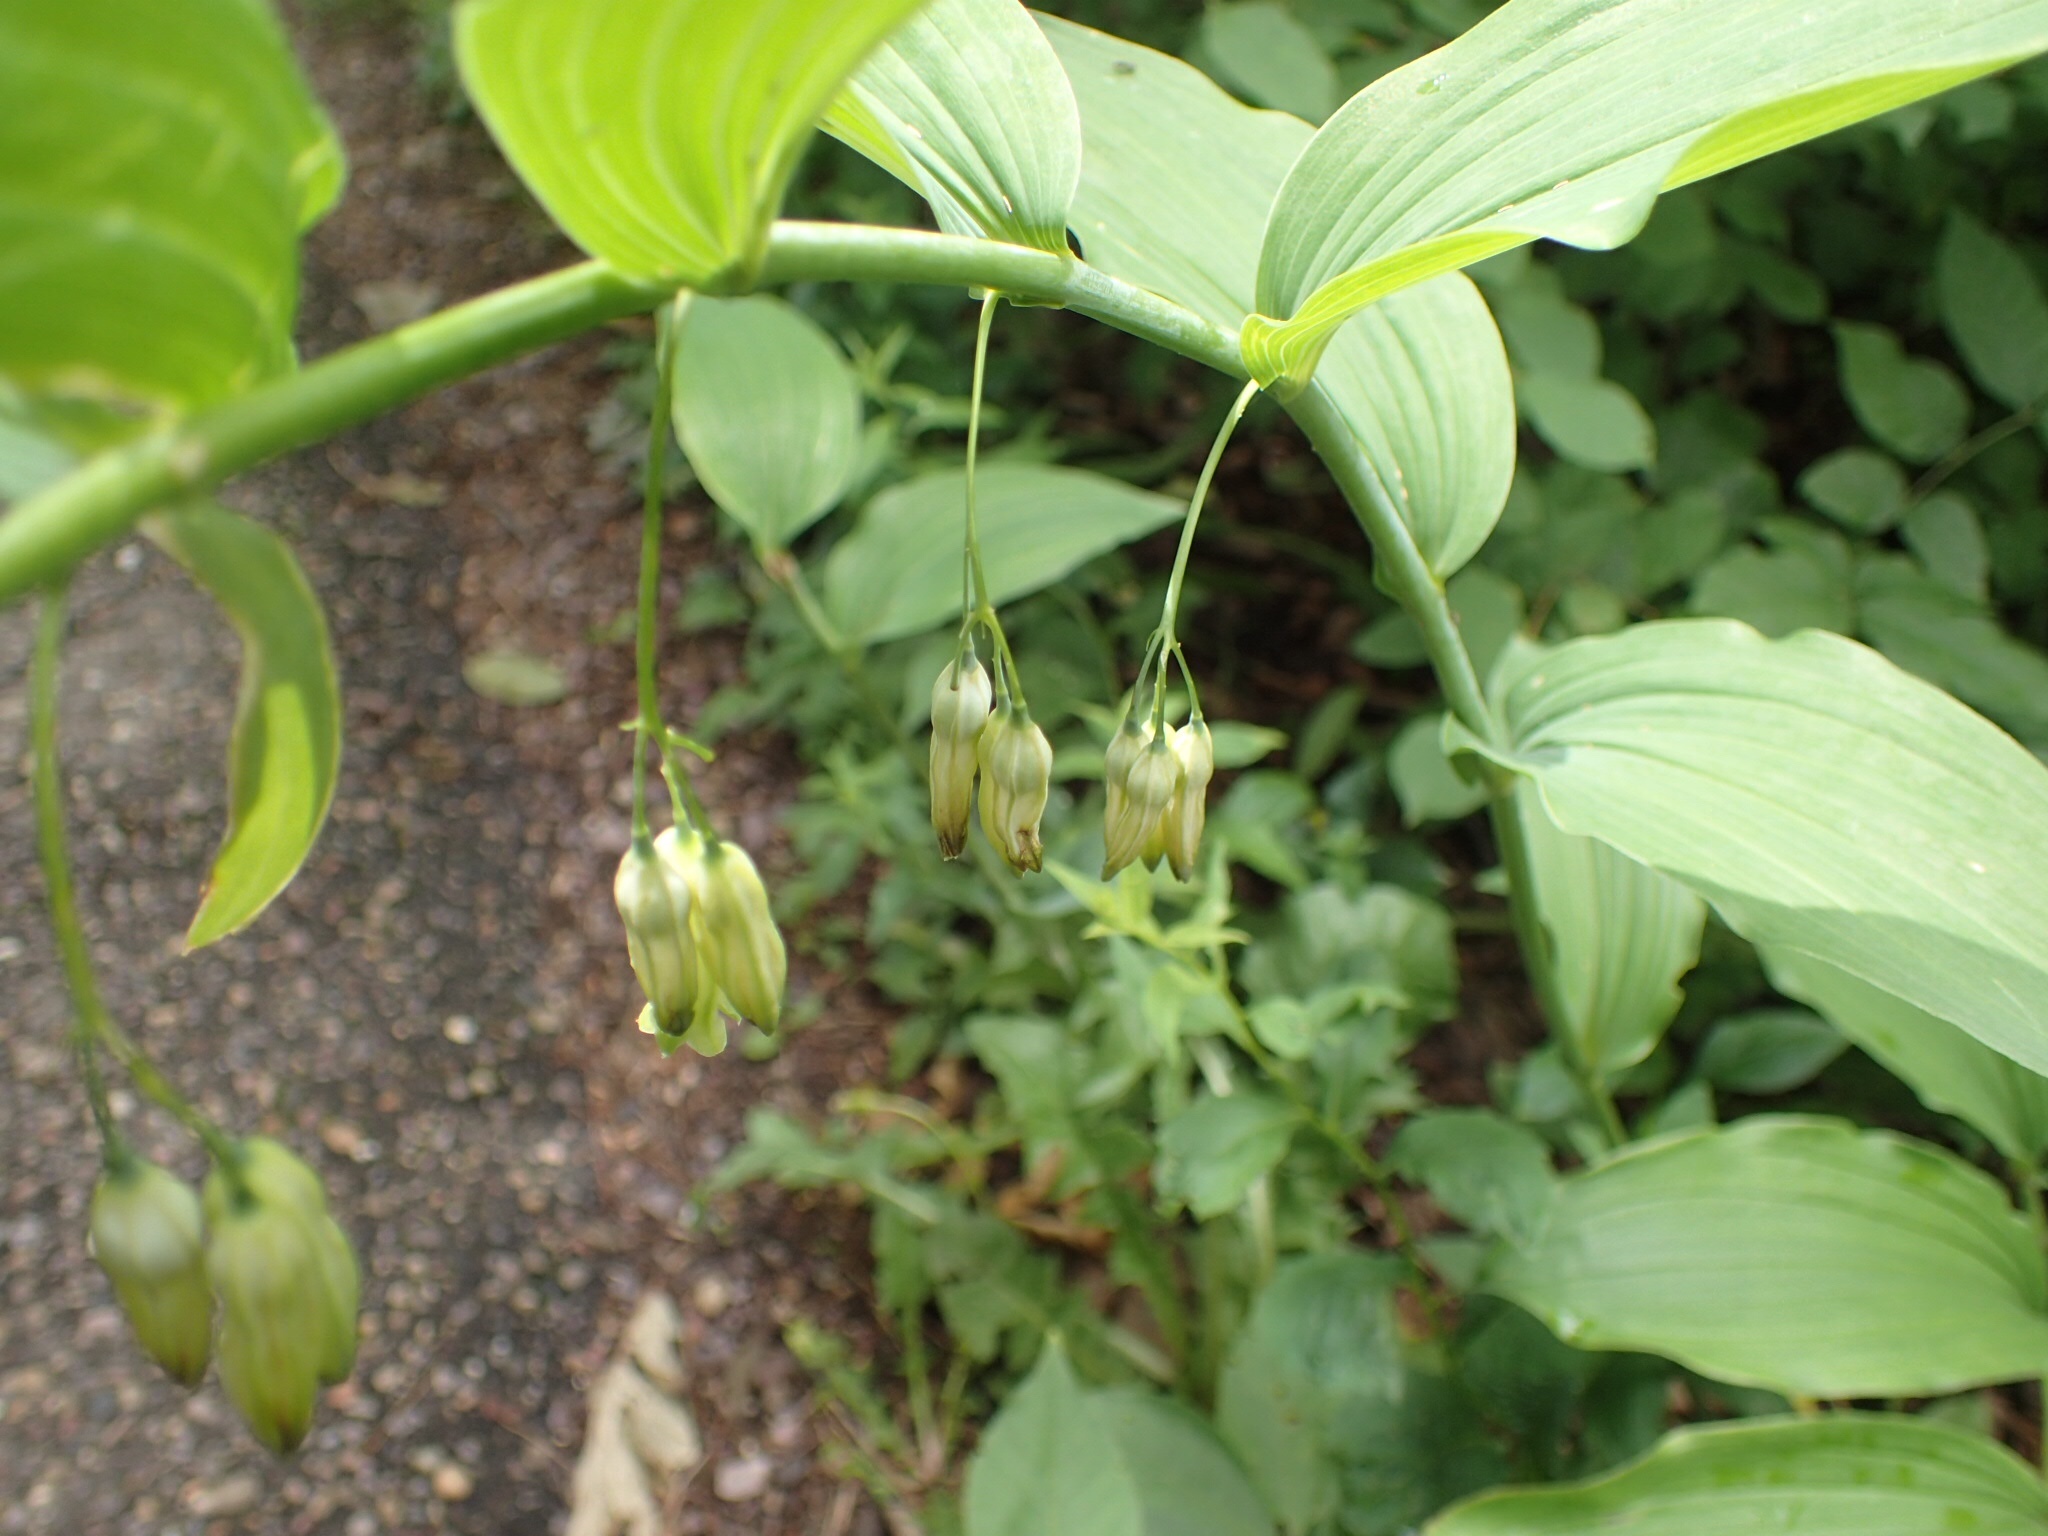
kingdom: Plantae
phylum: Tracheophyta
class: Liliopsida
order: Asparagales
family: Asparagaceae
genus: Polygonatum
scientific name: Polygonatum biflorum
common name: American solomon's-seal
